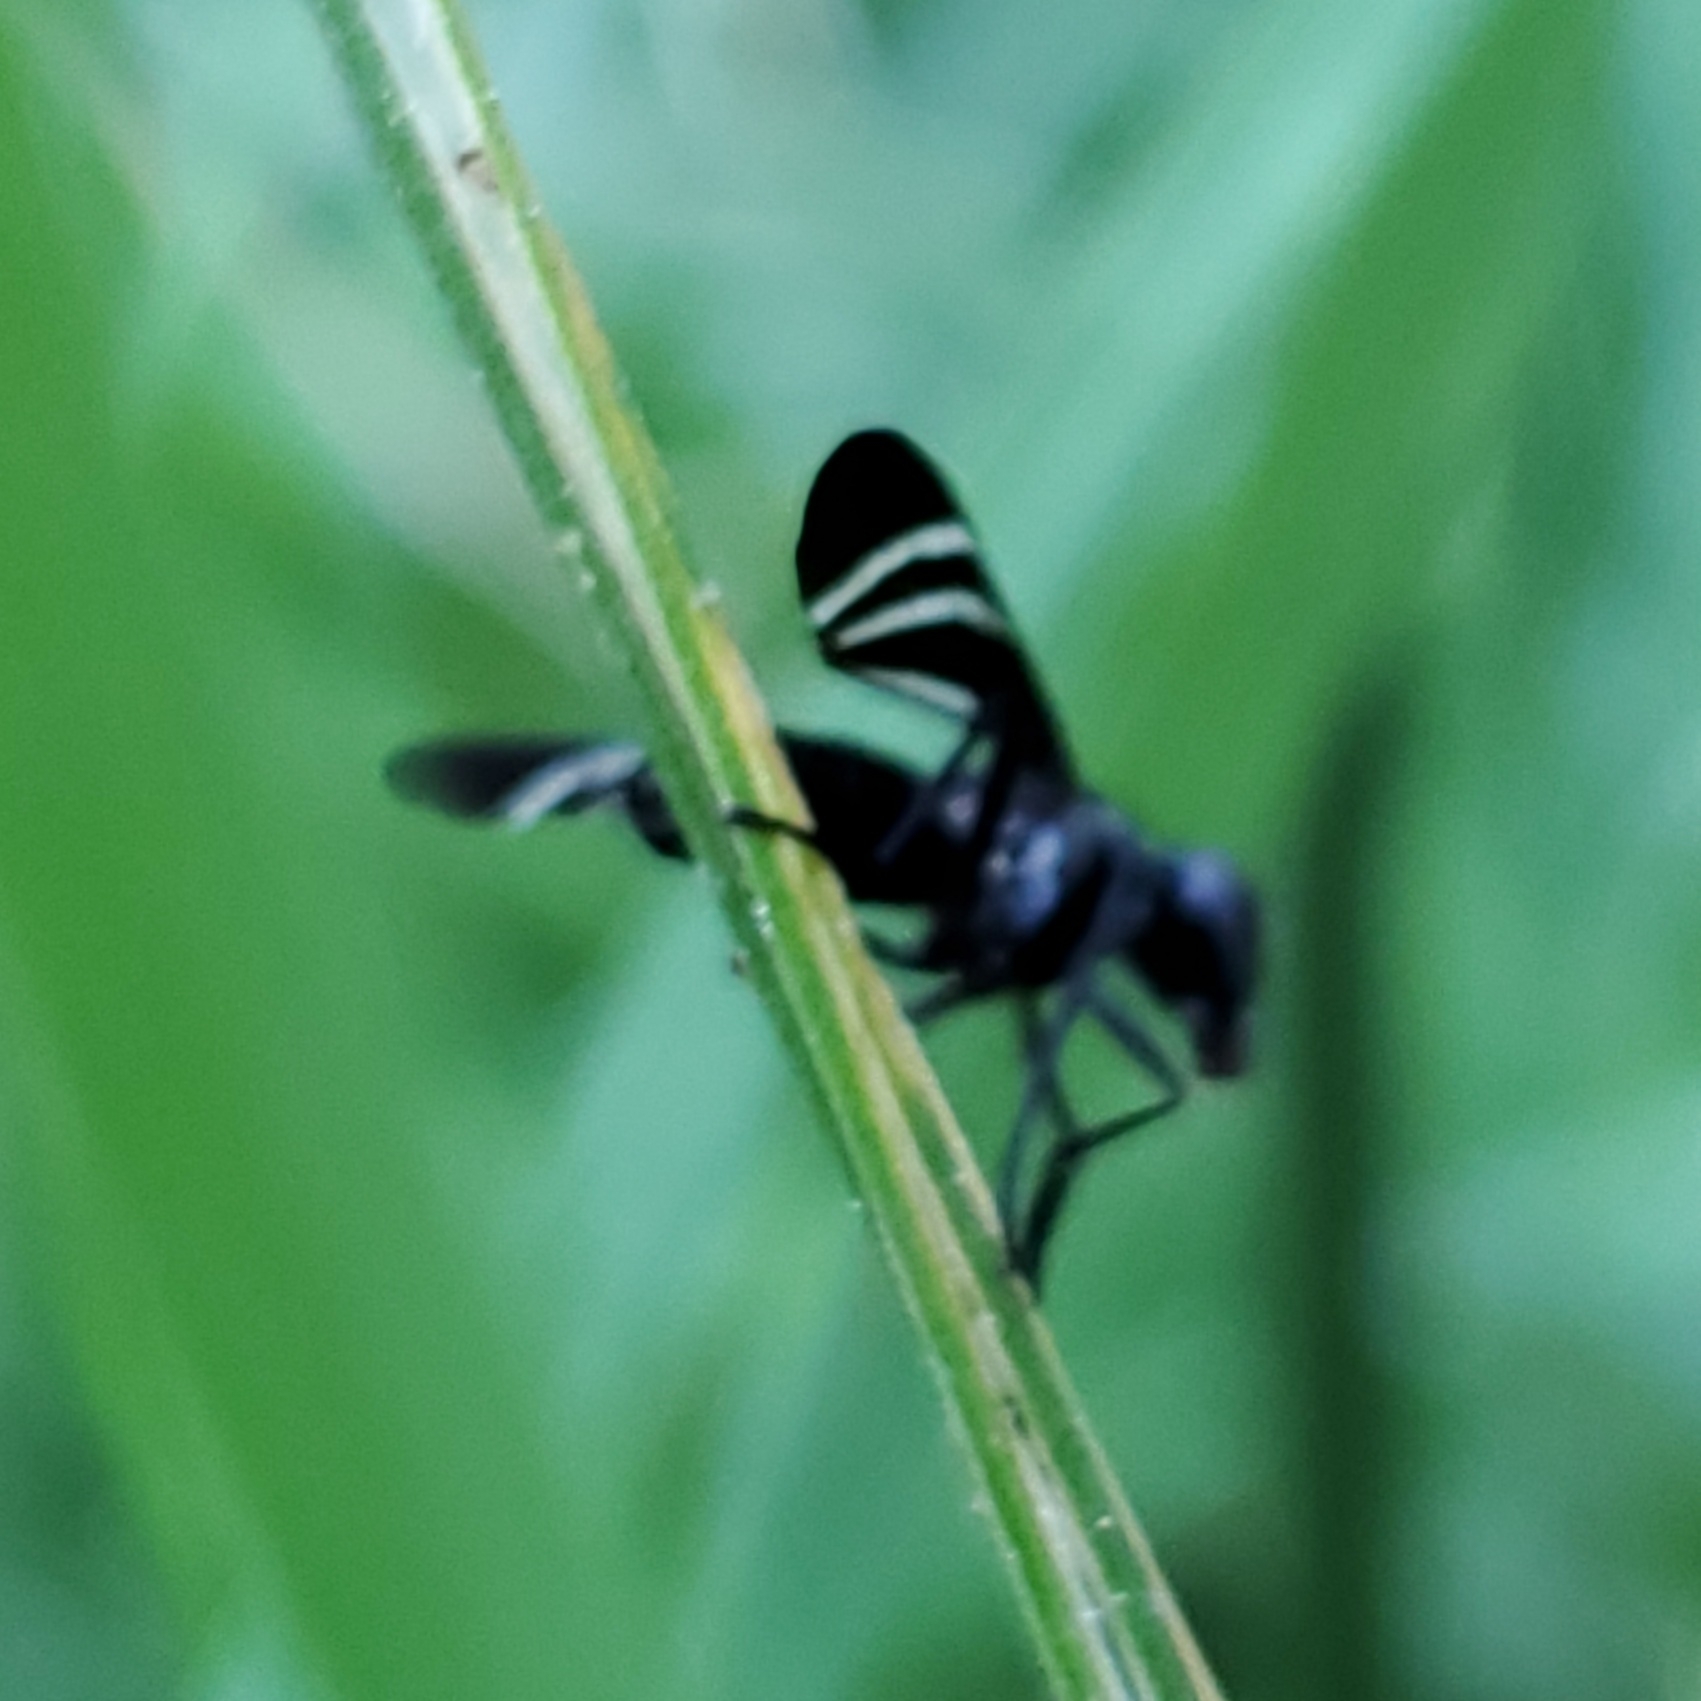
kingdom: Animalia
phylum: Arthropoda
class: Insecta
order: Diptera
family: Ulidiidae
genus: Tritoxa
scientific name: Tritoxa flexa
